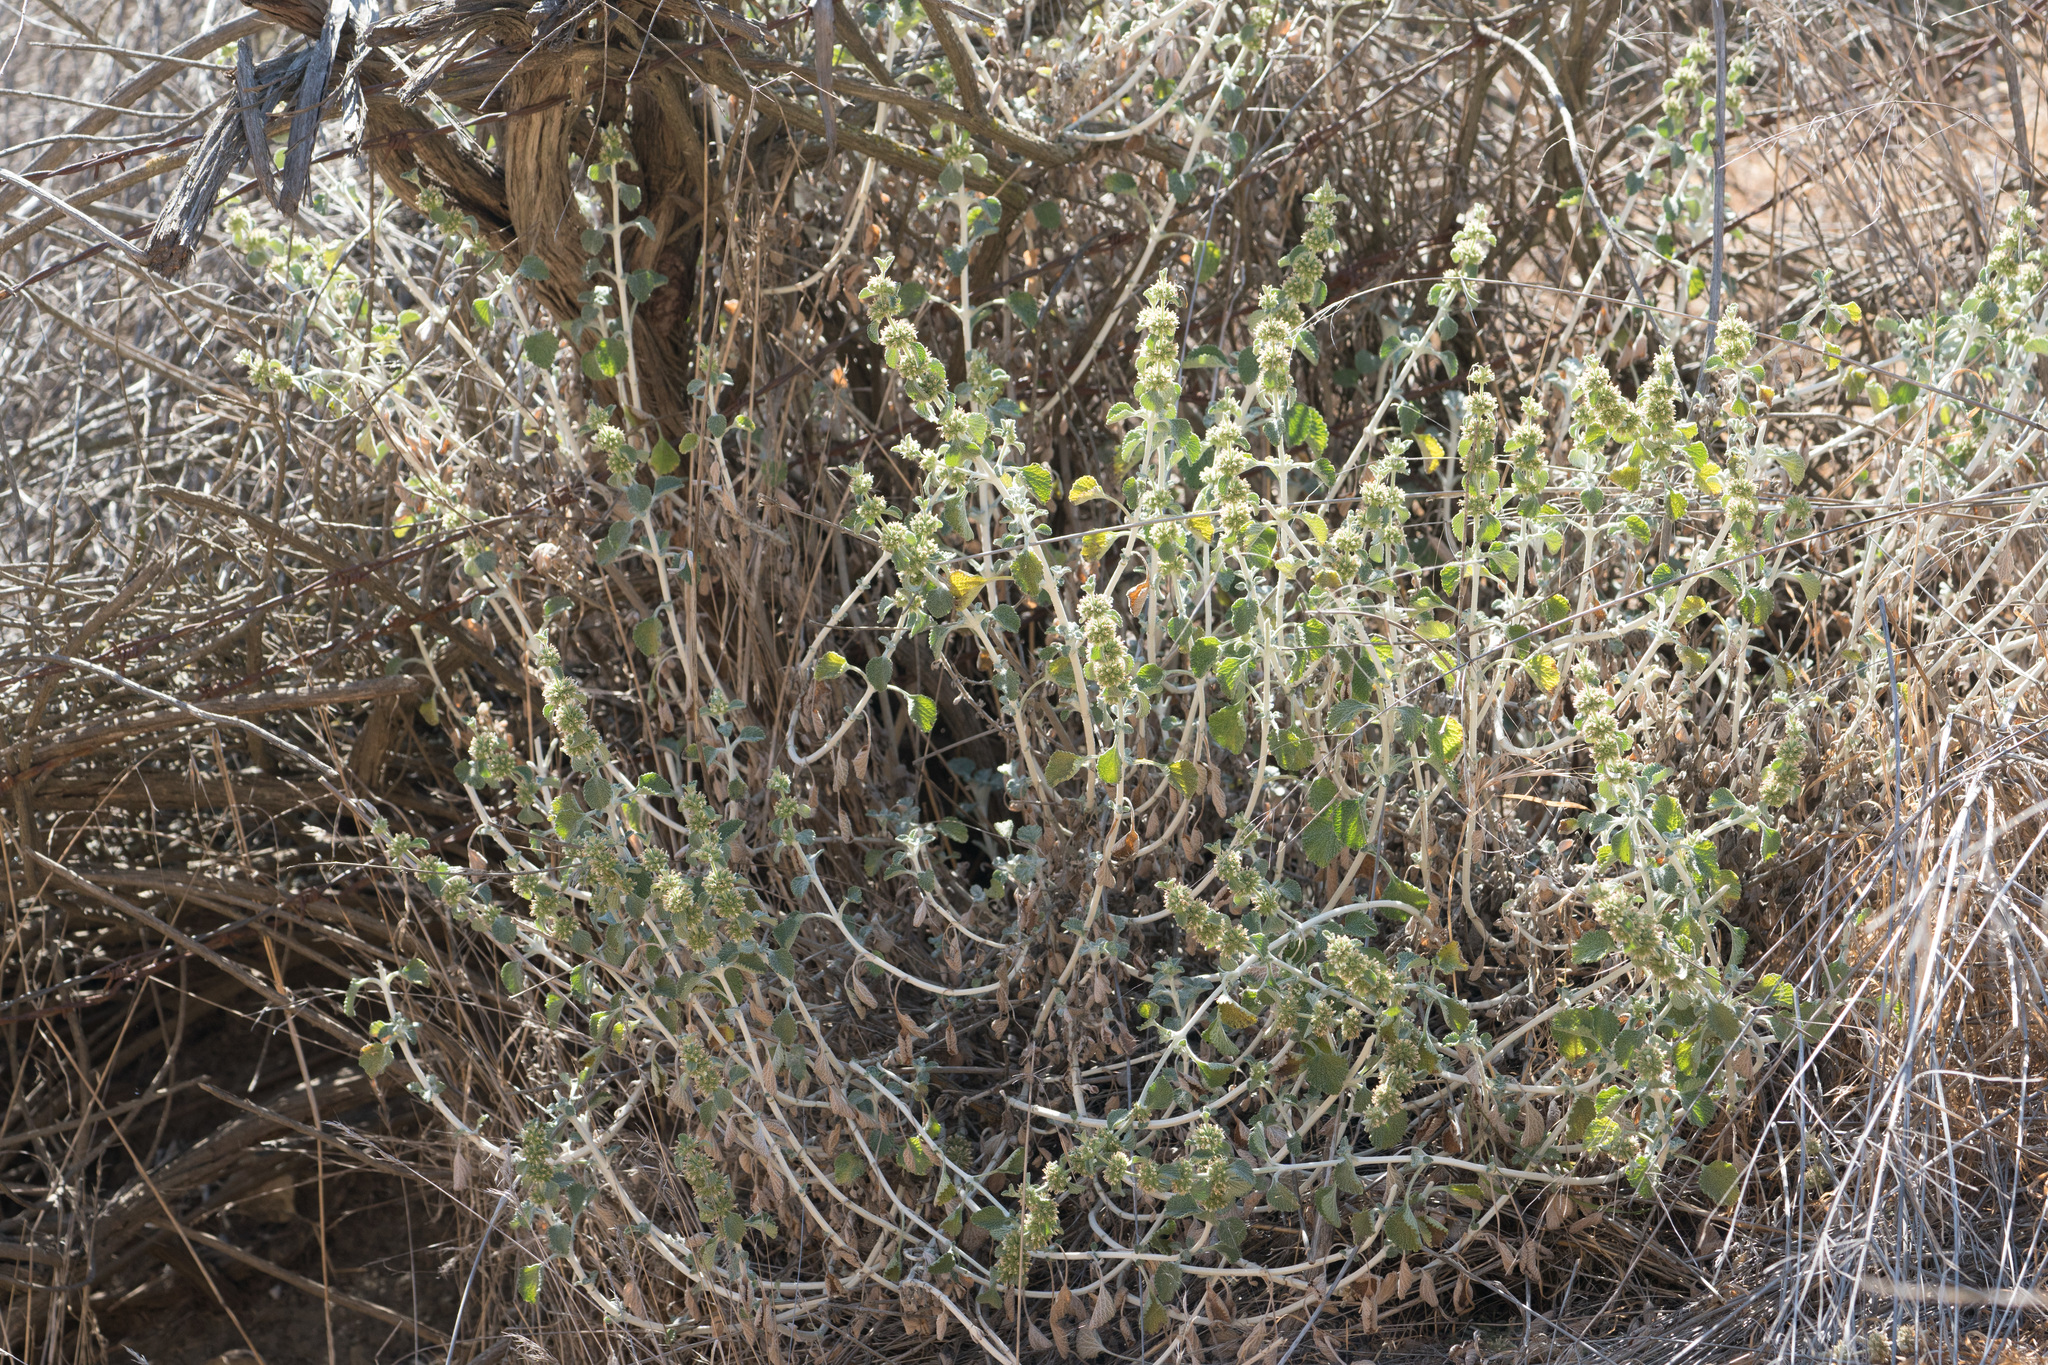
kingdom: Plantae
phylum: Tracheophyta
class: Magnoliopsida
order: Lamiales
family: Lamiaceae
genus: Marrubium
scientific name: Marrubium vulgare
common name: Horehound
